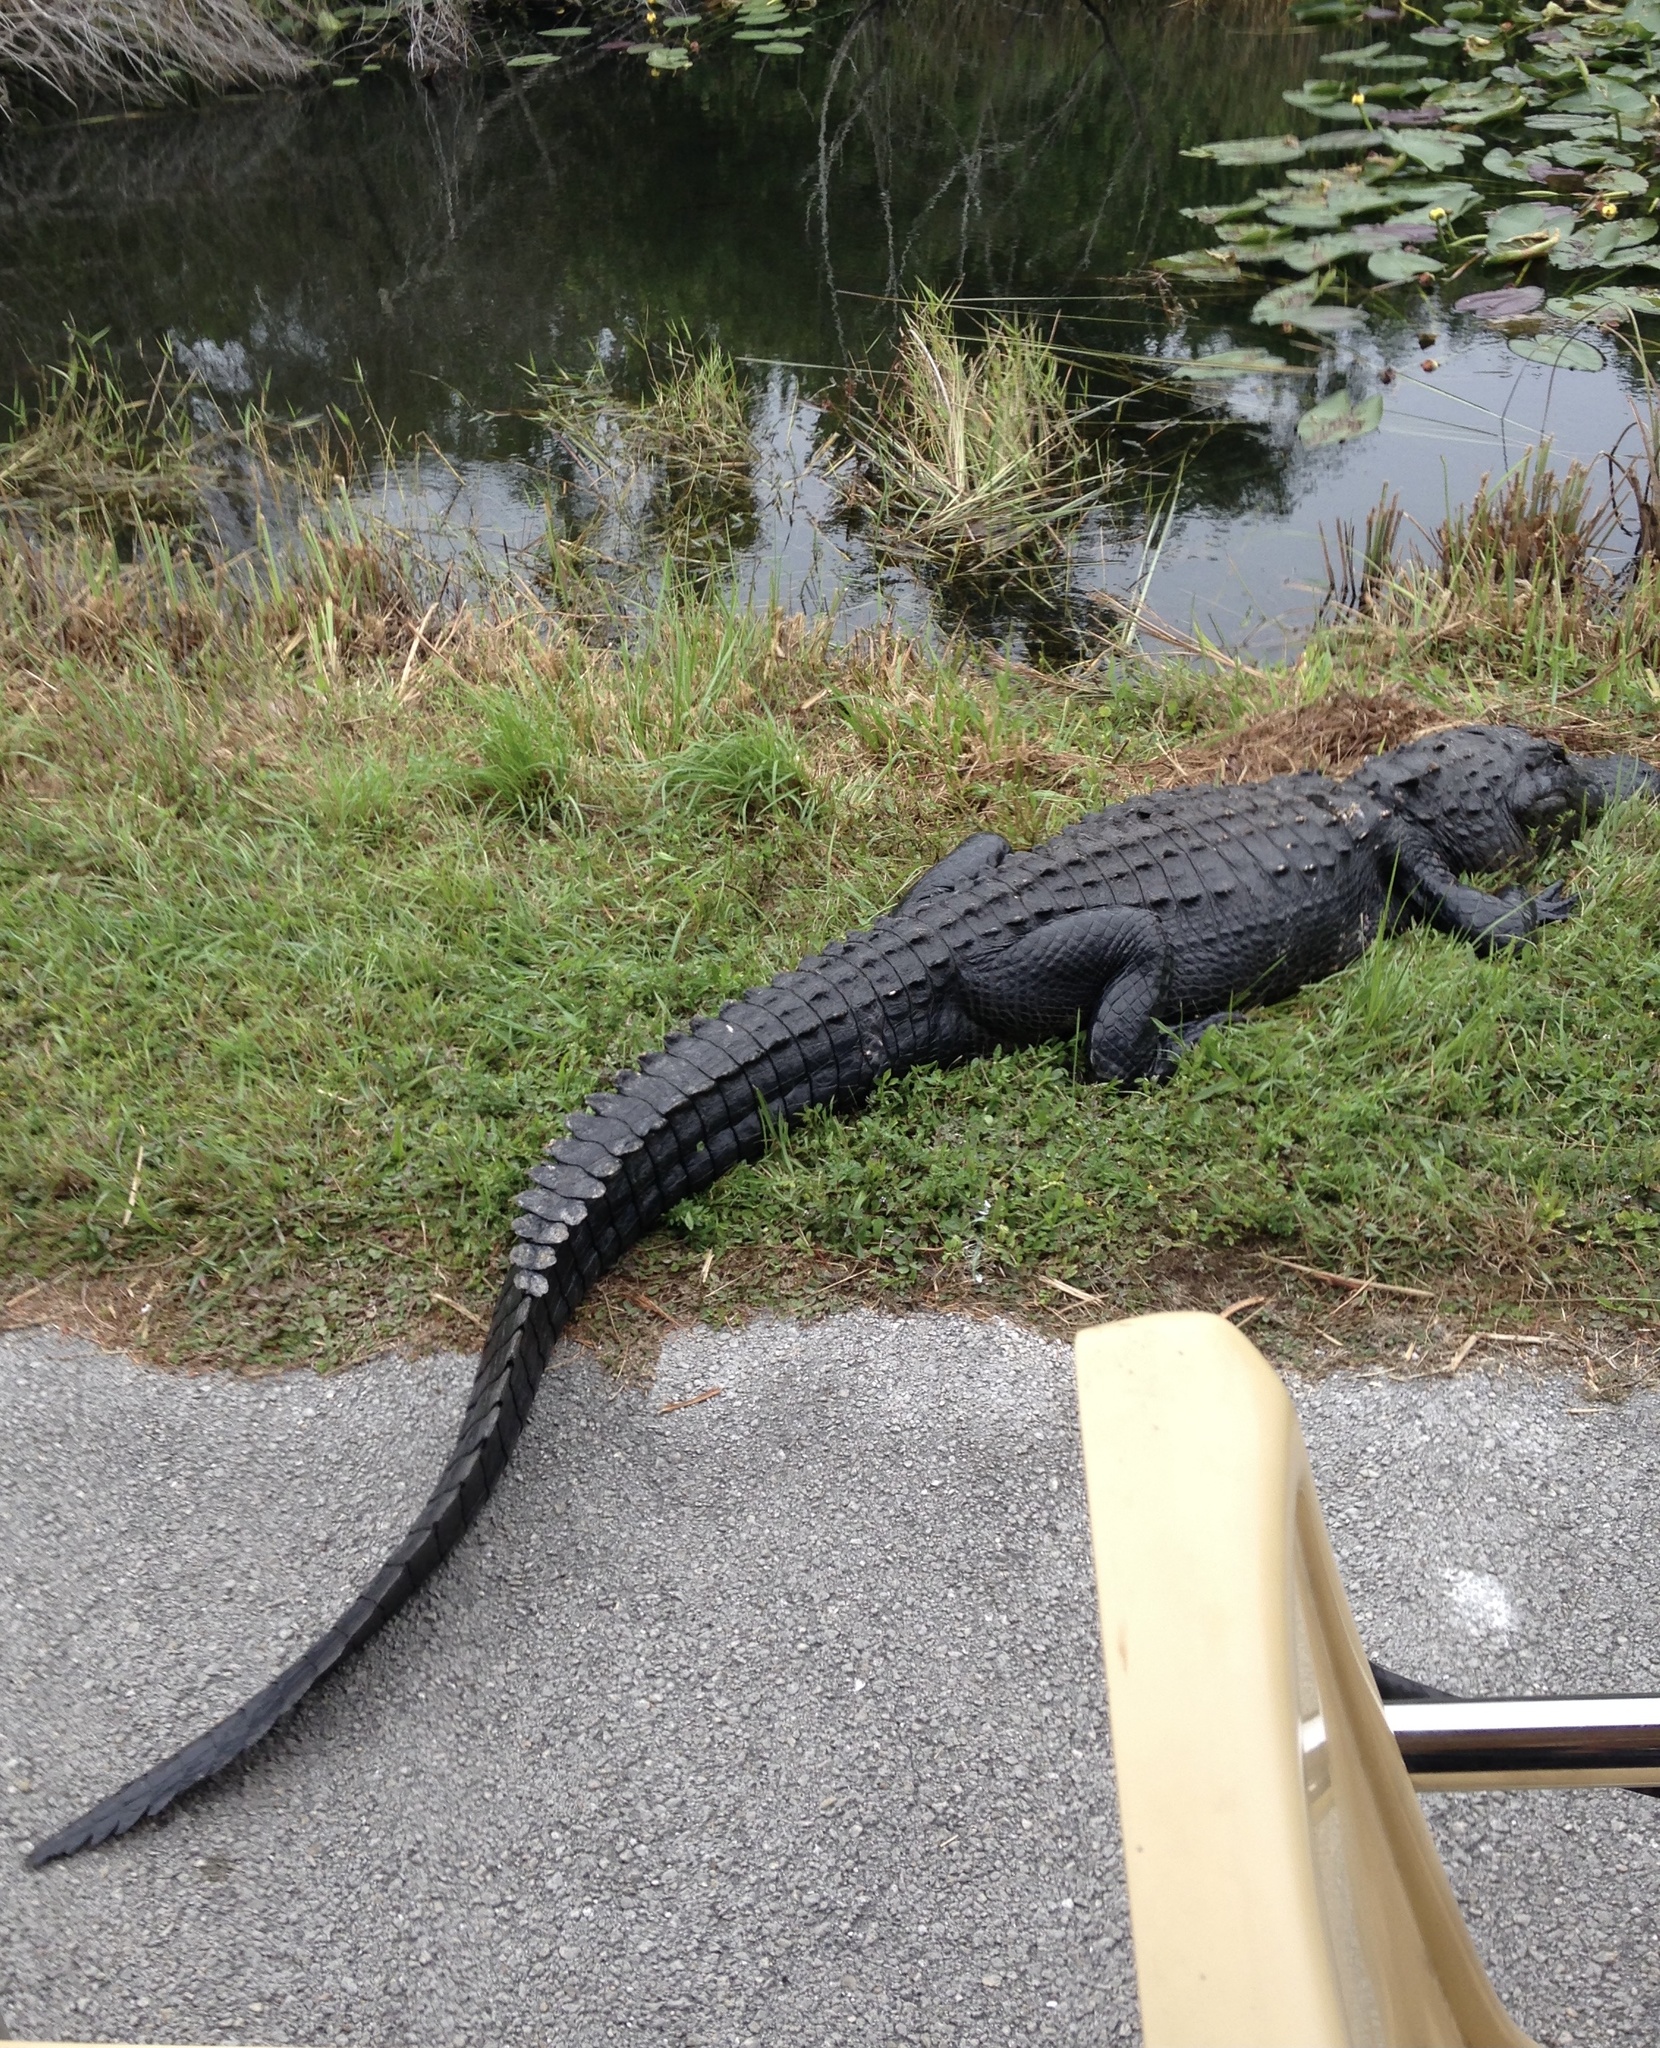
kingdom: Animalia
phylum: Chordata
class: Crocodylia
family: Alligatoridae
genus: Alligator
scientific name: Alligator mississippiensis
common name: American alligator
